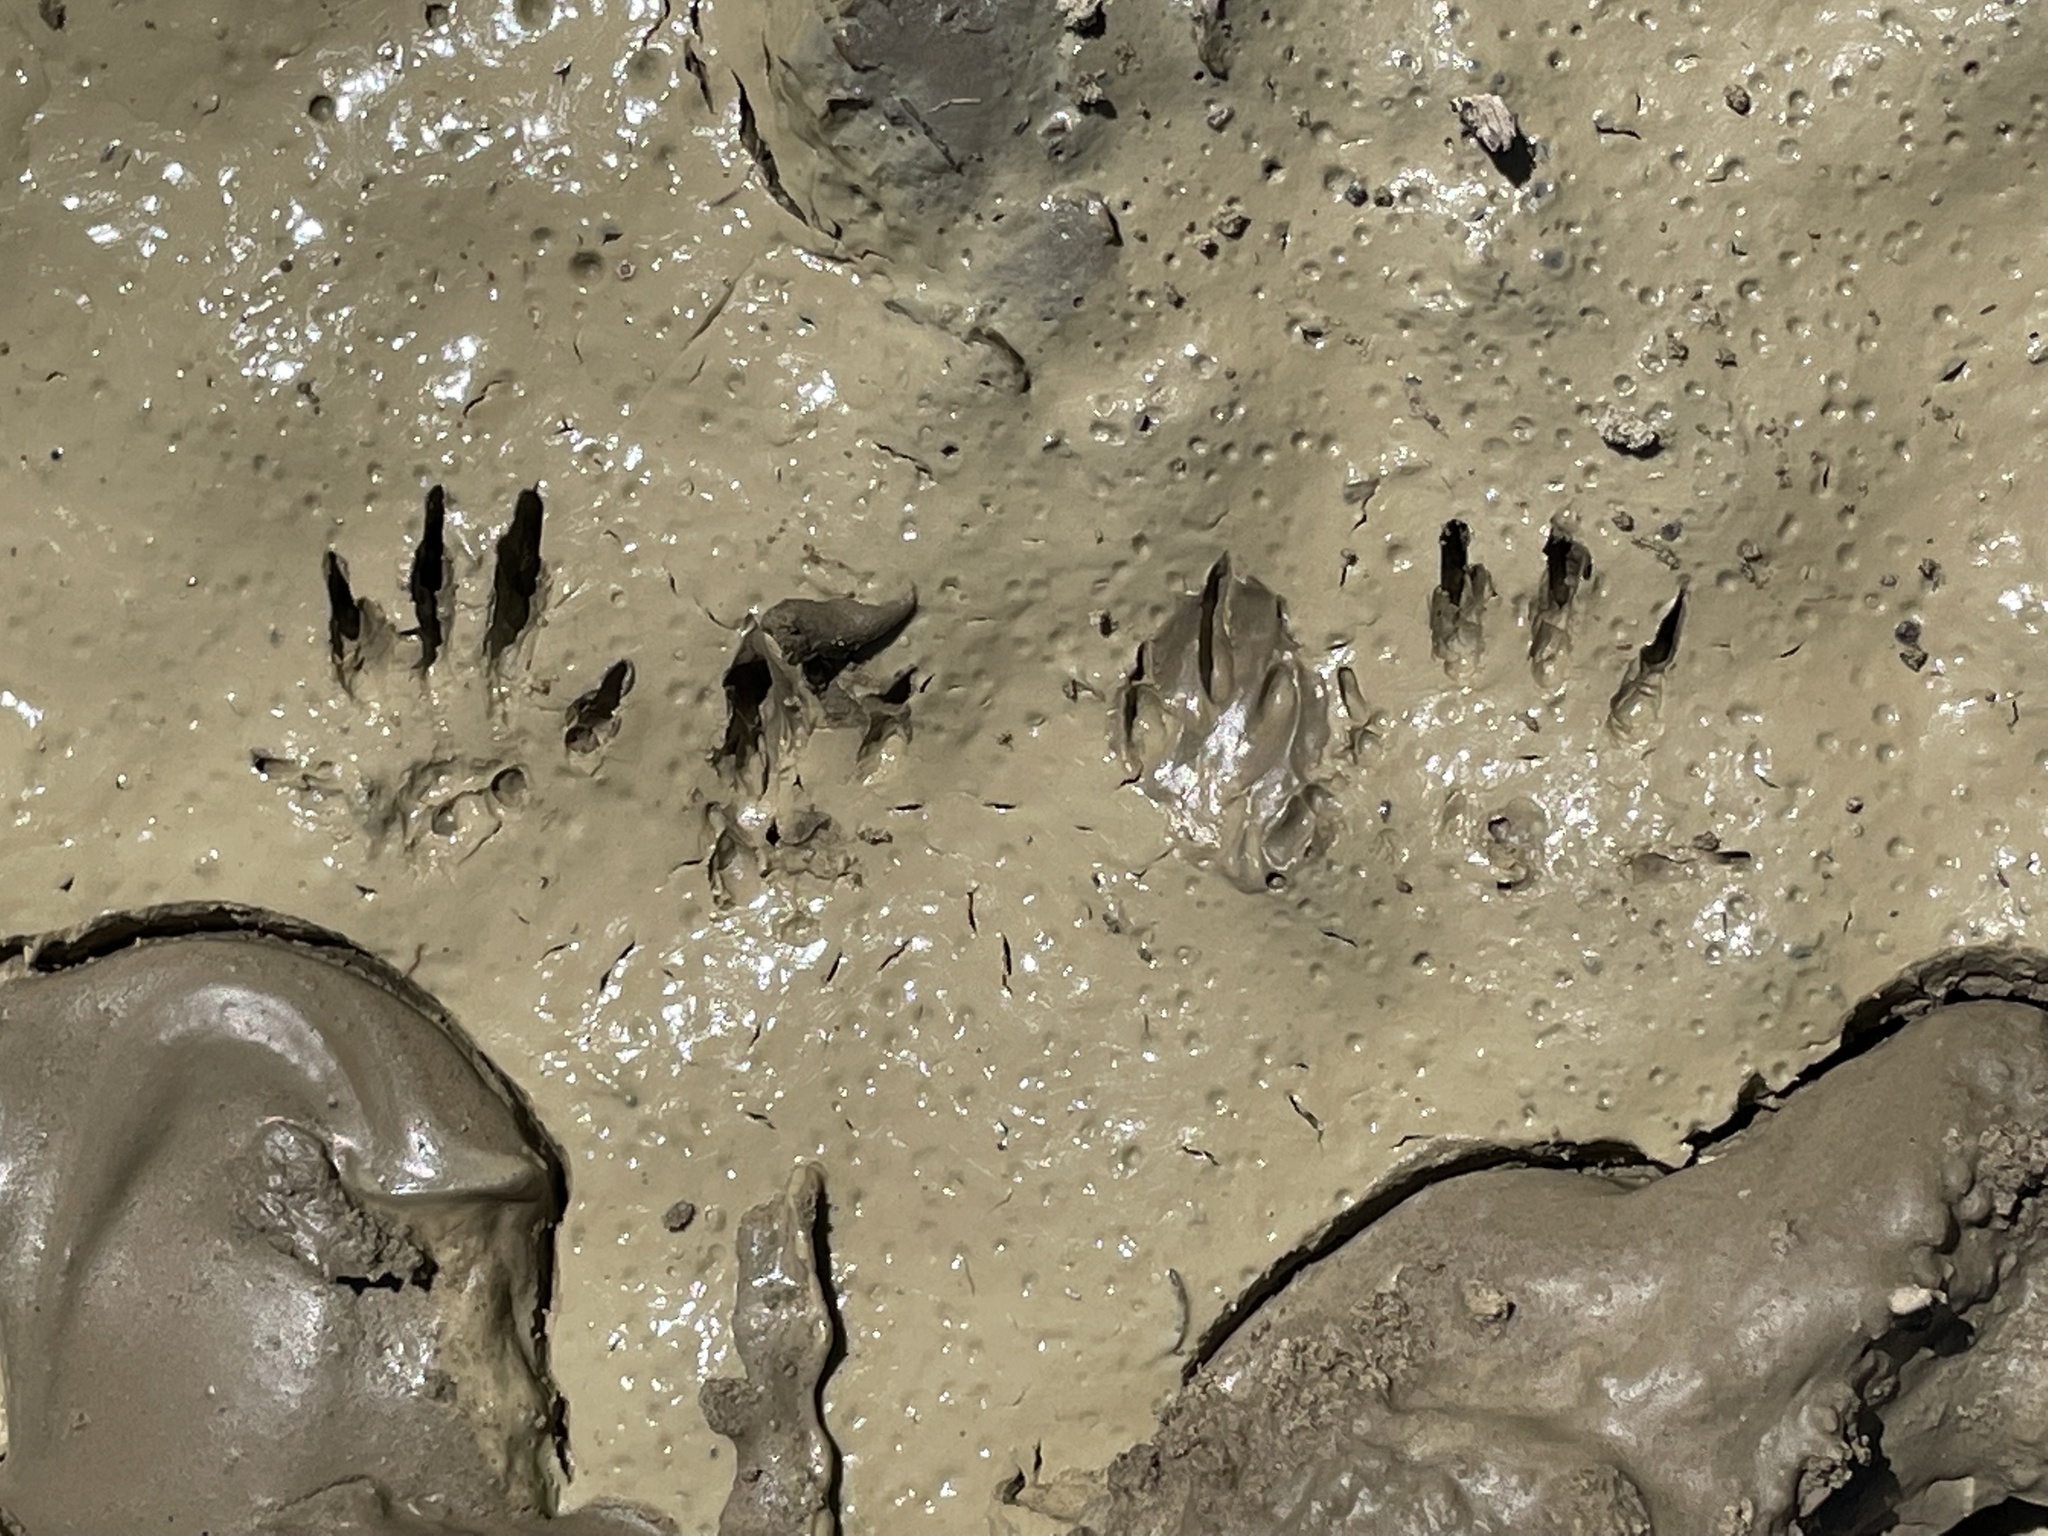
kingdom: Animalia
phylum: Chordata
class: Mammalia
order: Rodentia
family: Sciuridae
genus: Otospermophilus
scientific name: Otospermophilus variegatus
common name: Rock squirrel
